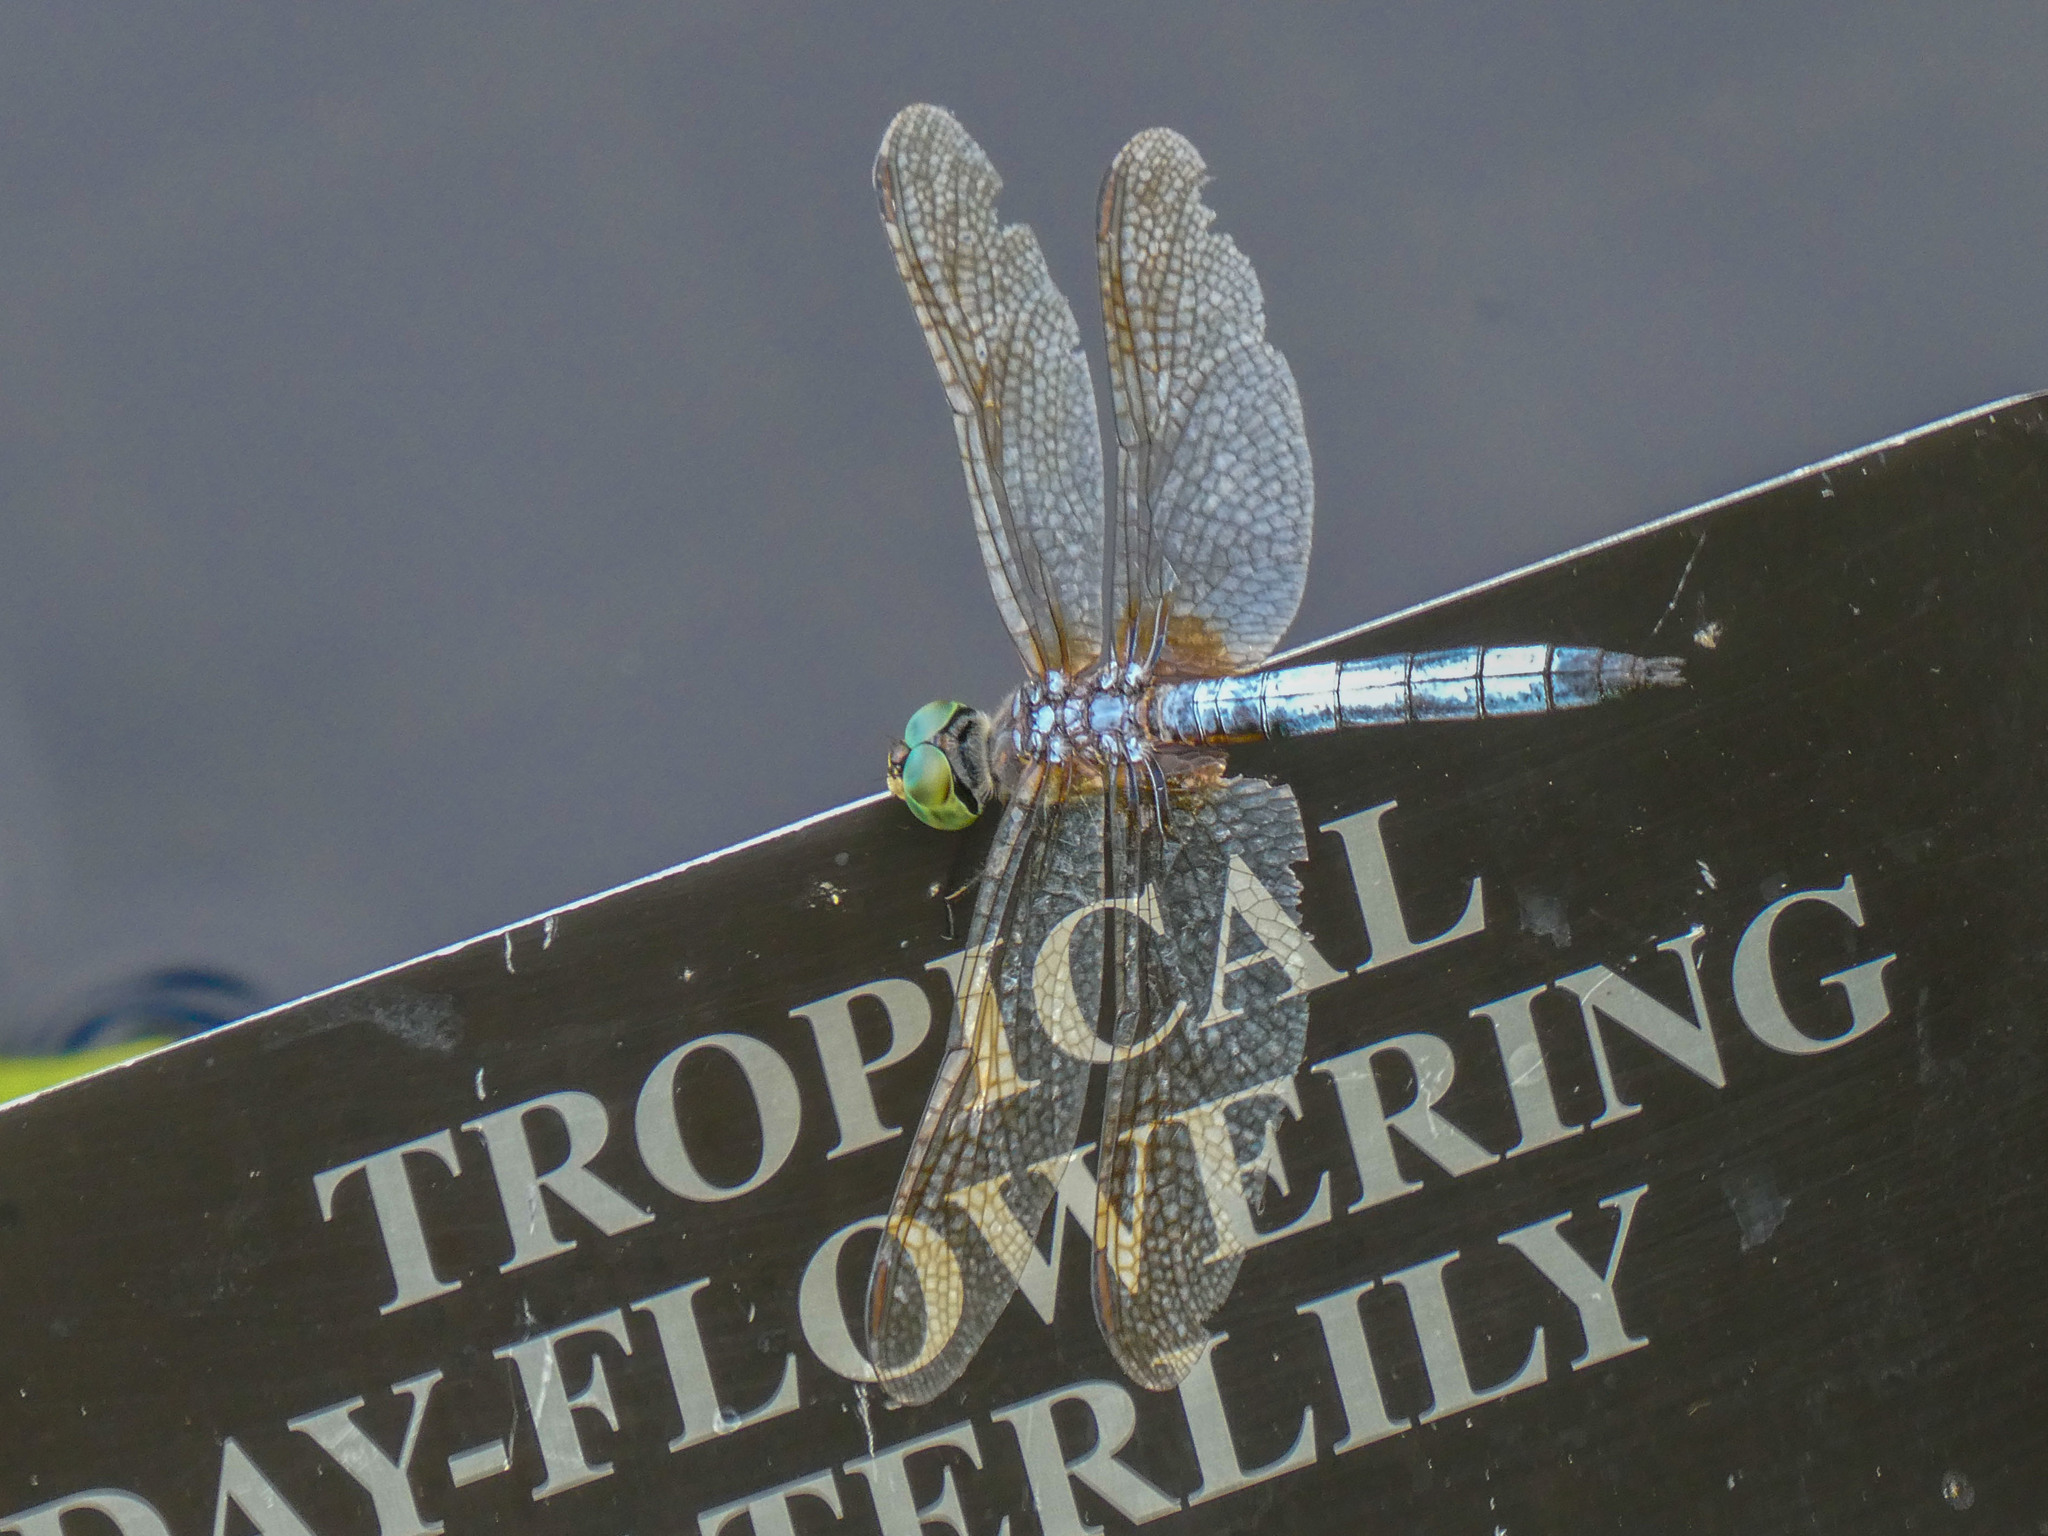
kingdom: Animalia
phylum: Arthropoda
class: Insecta
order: Odonata
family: Libellulidae
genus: Pachydiplax
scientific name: Pachydiplax longipennis
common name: Blue dasher
